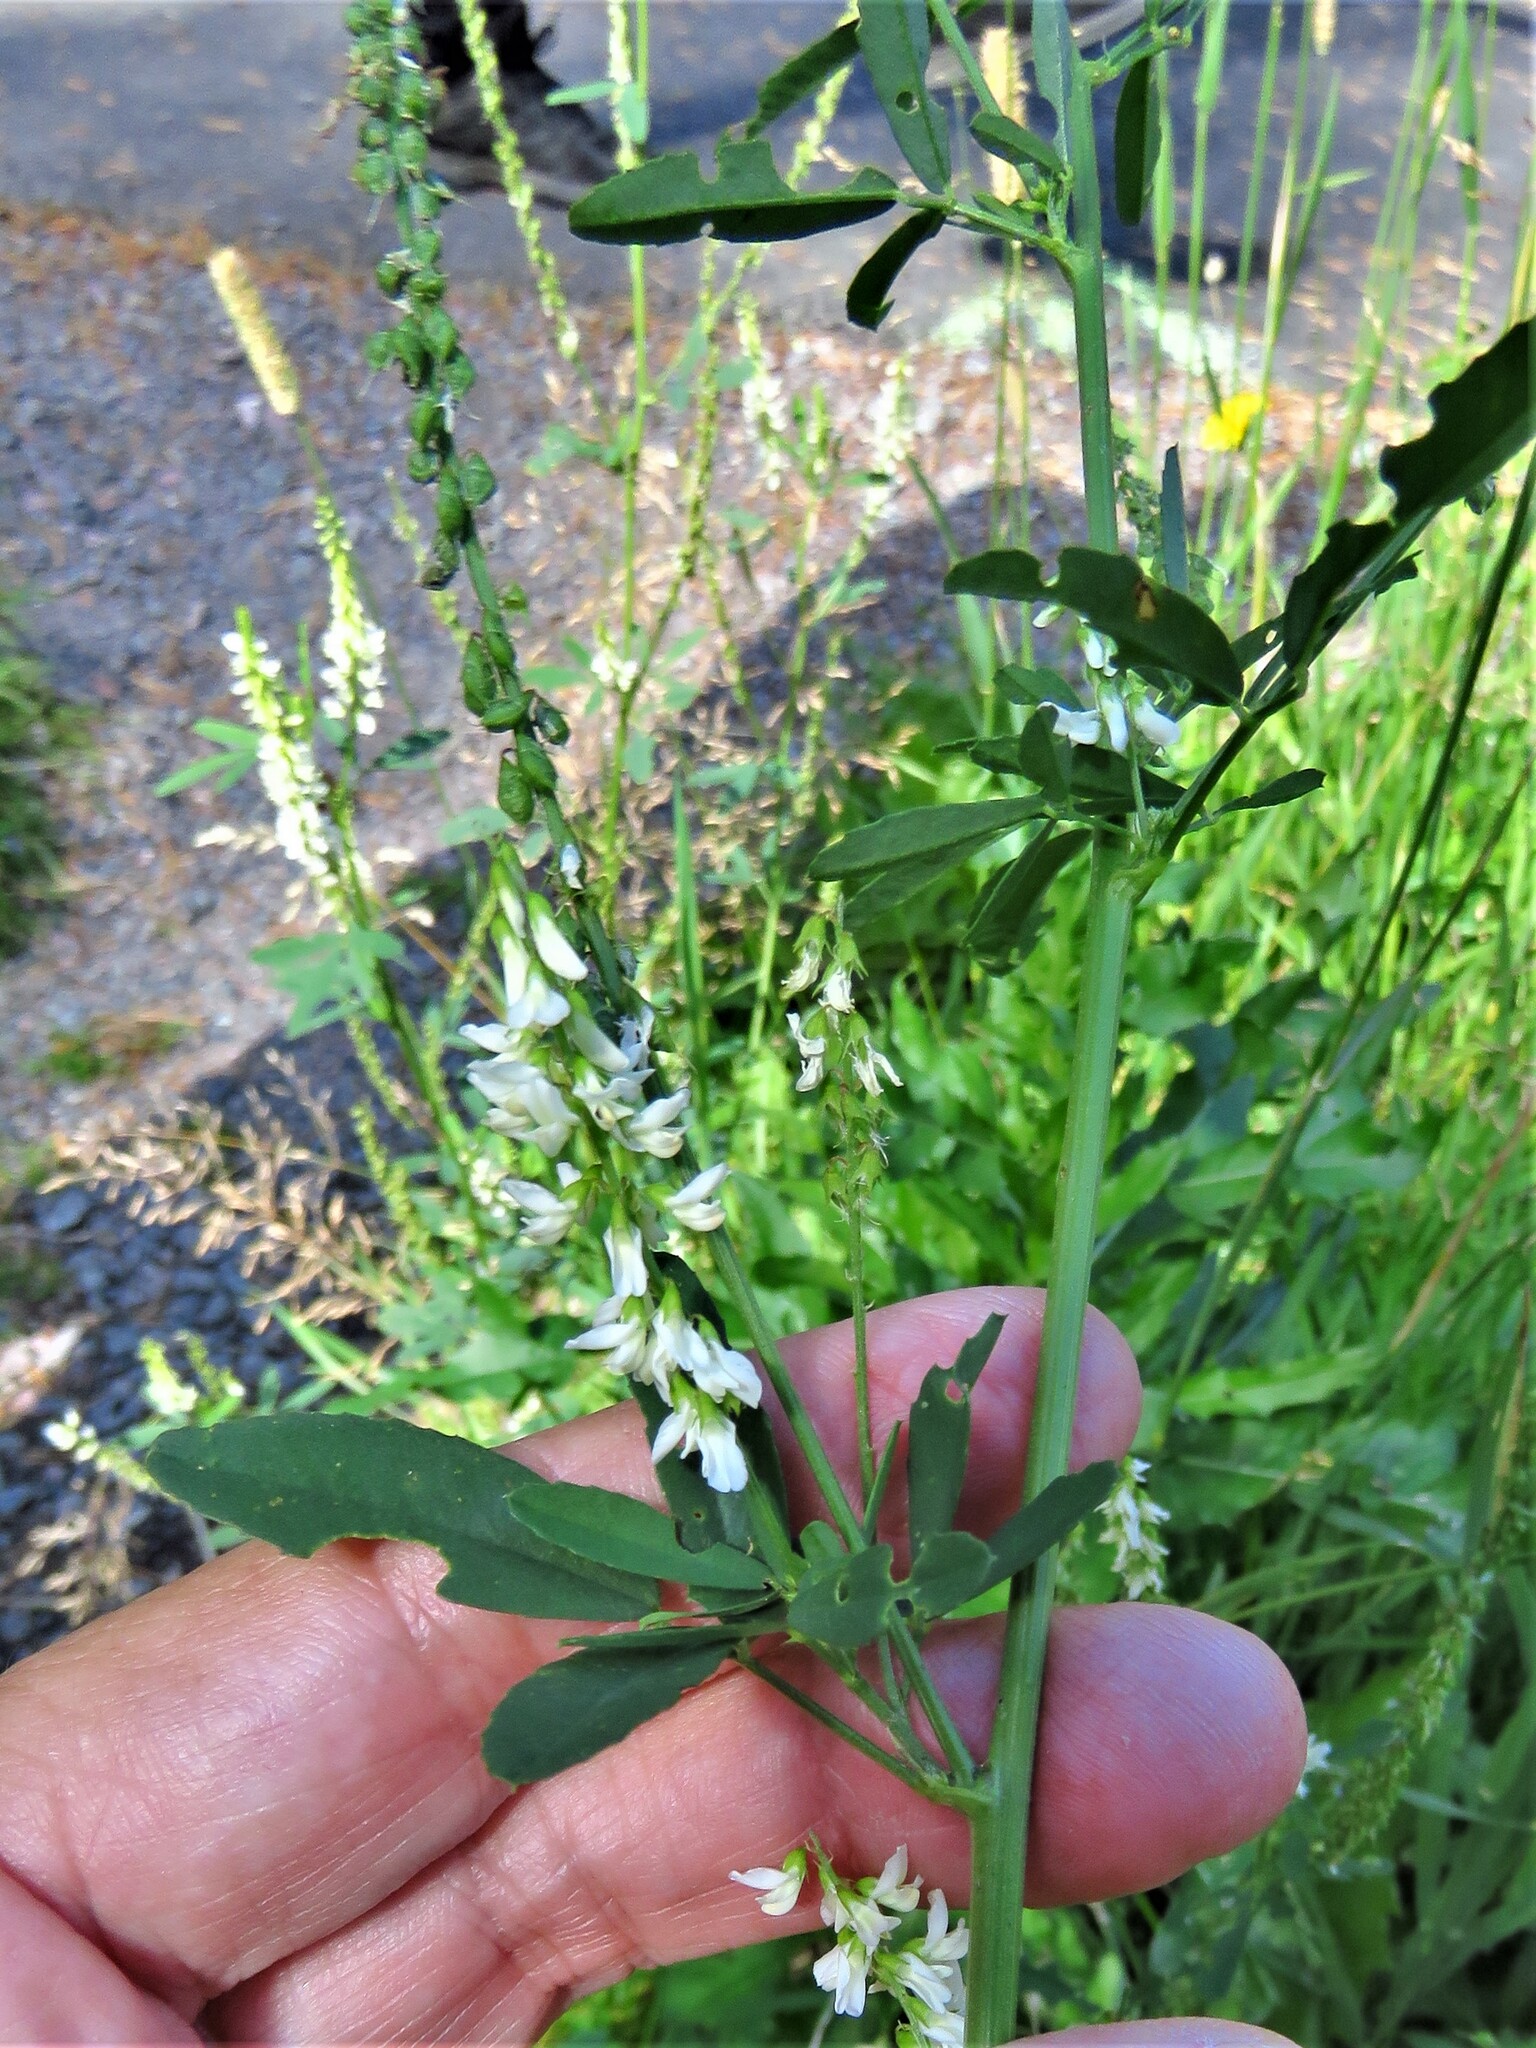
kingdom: Plantae
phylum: Tracheophyta
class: Magnoliopsida
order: Fabales
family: Fabaceae
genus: Melilotus
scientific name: Melilotus albus
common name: White melilot
